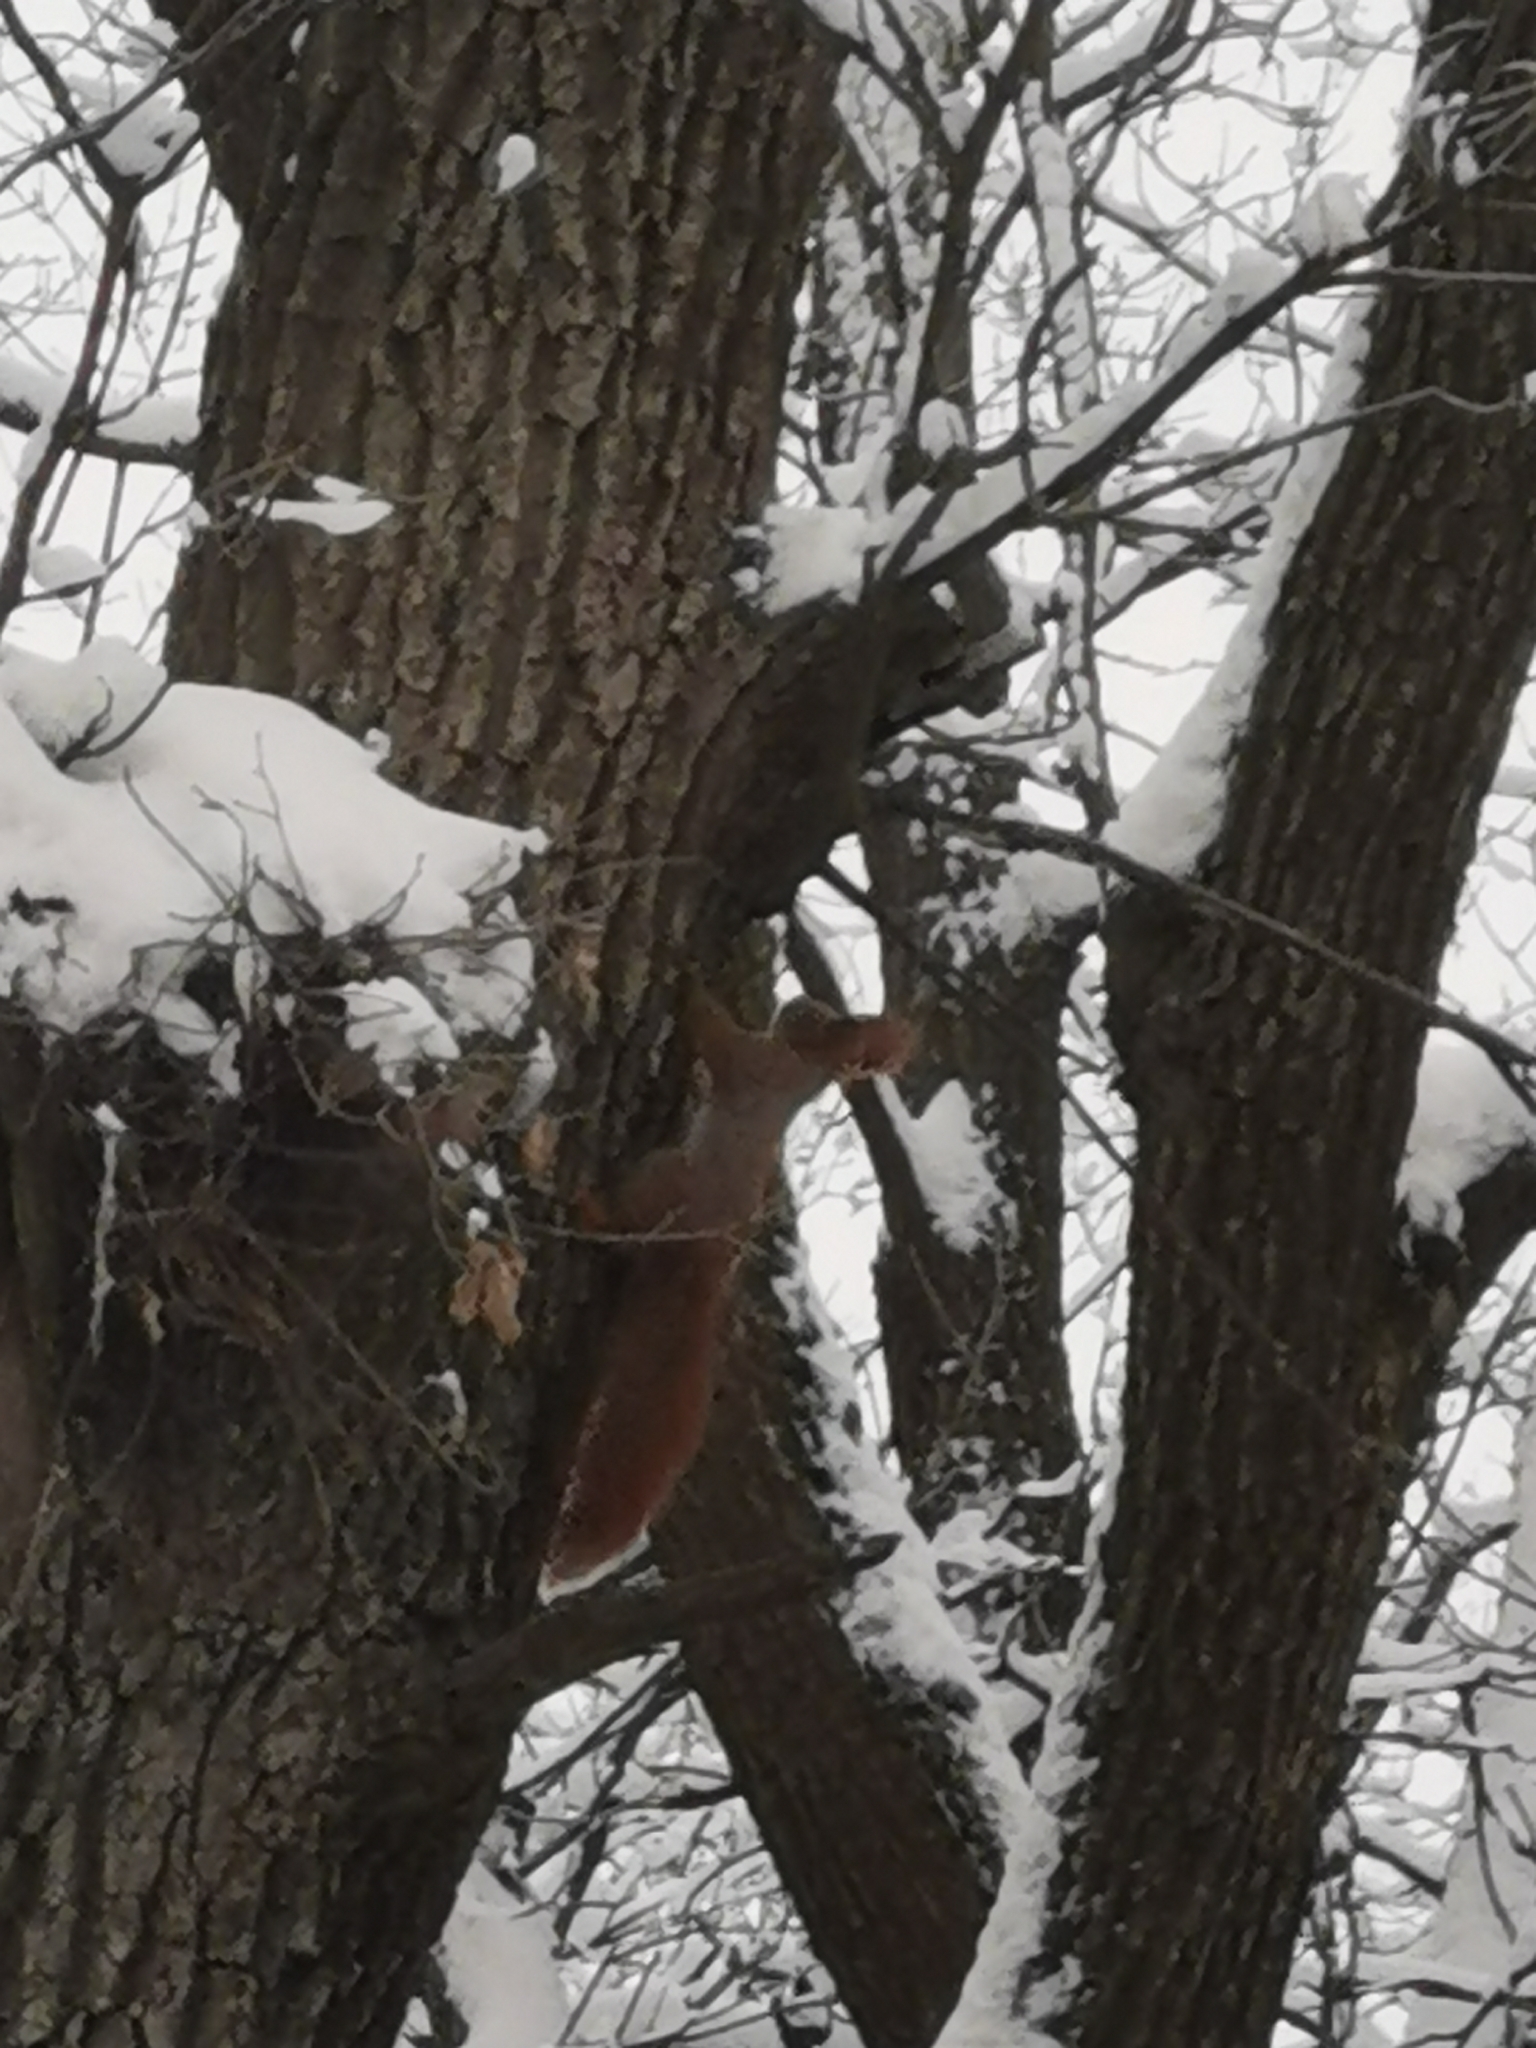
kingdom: Animalia
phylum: Chordata
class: Mammalia
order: Rodentia
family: Sciuridae
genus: Sciurus
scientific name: Sciurus vulgaris
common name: Eurasian red squirrel
